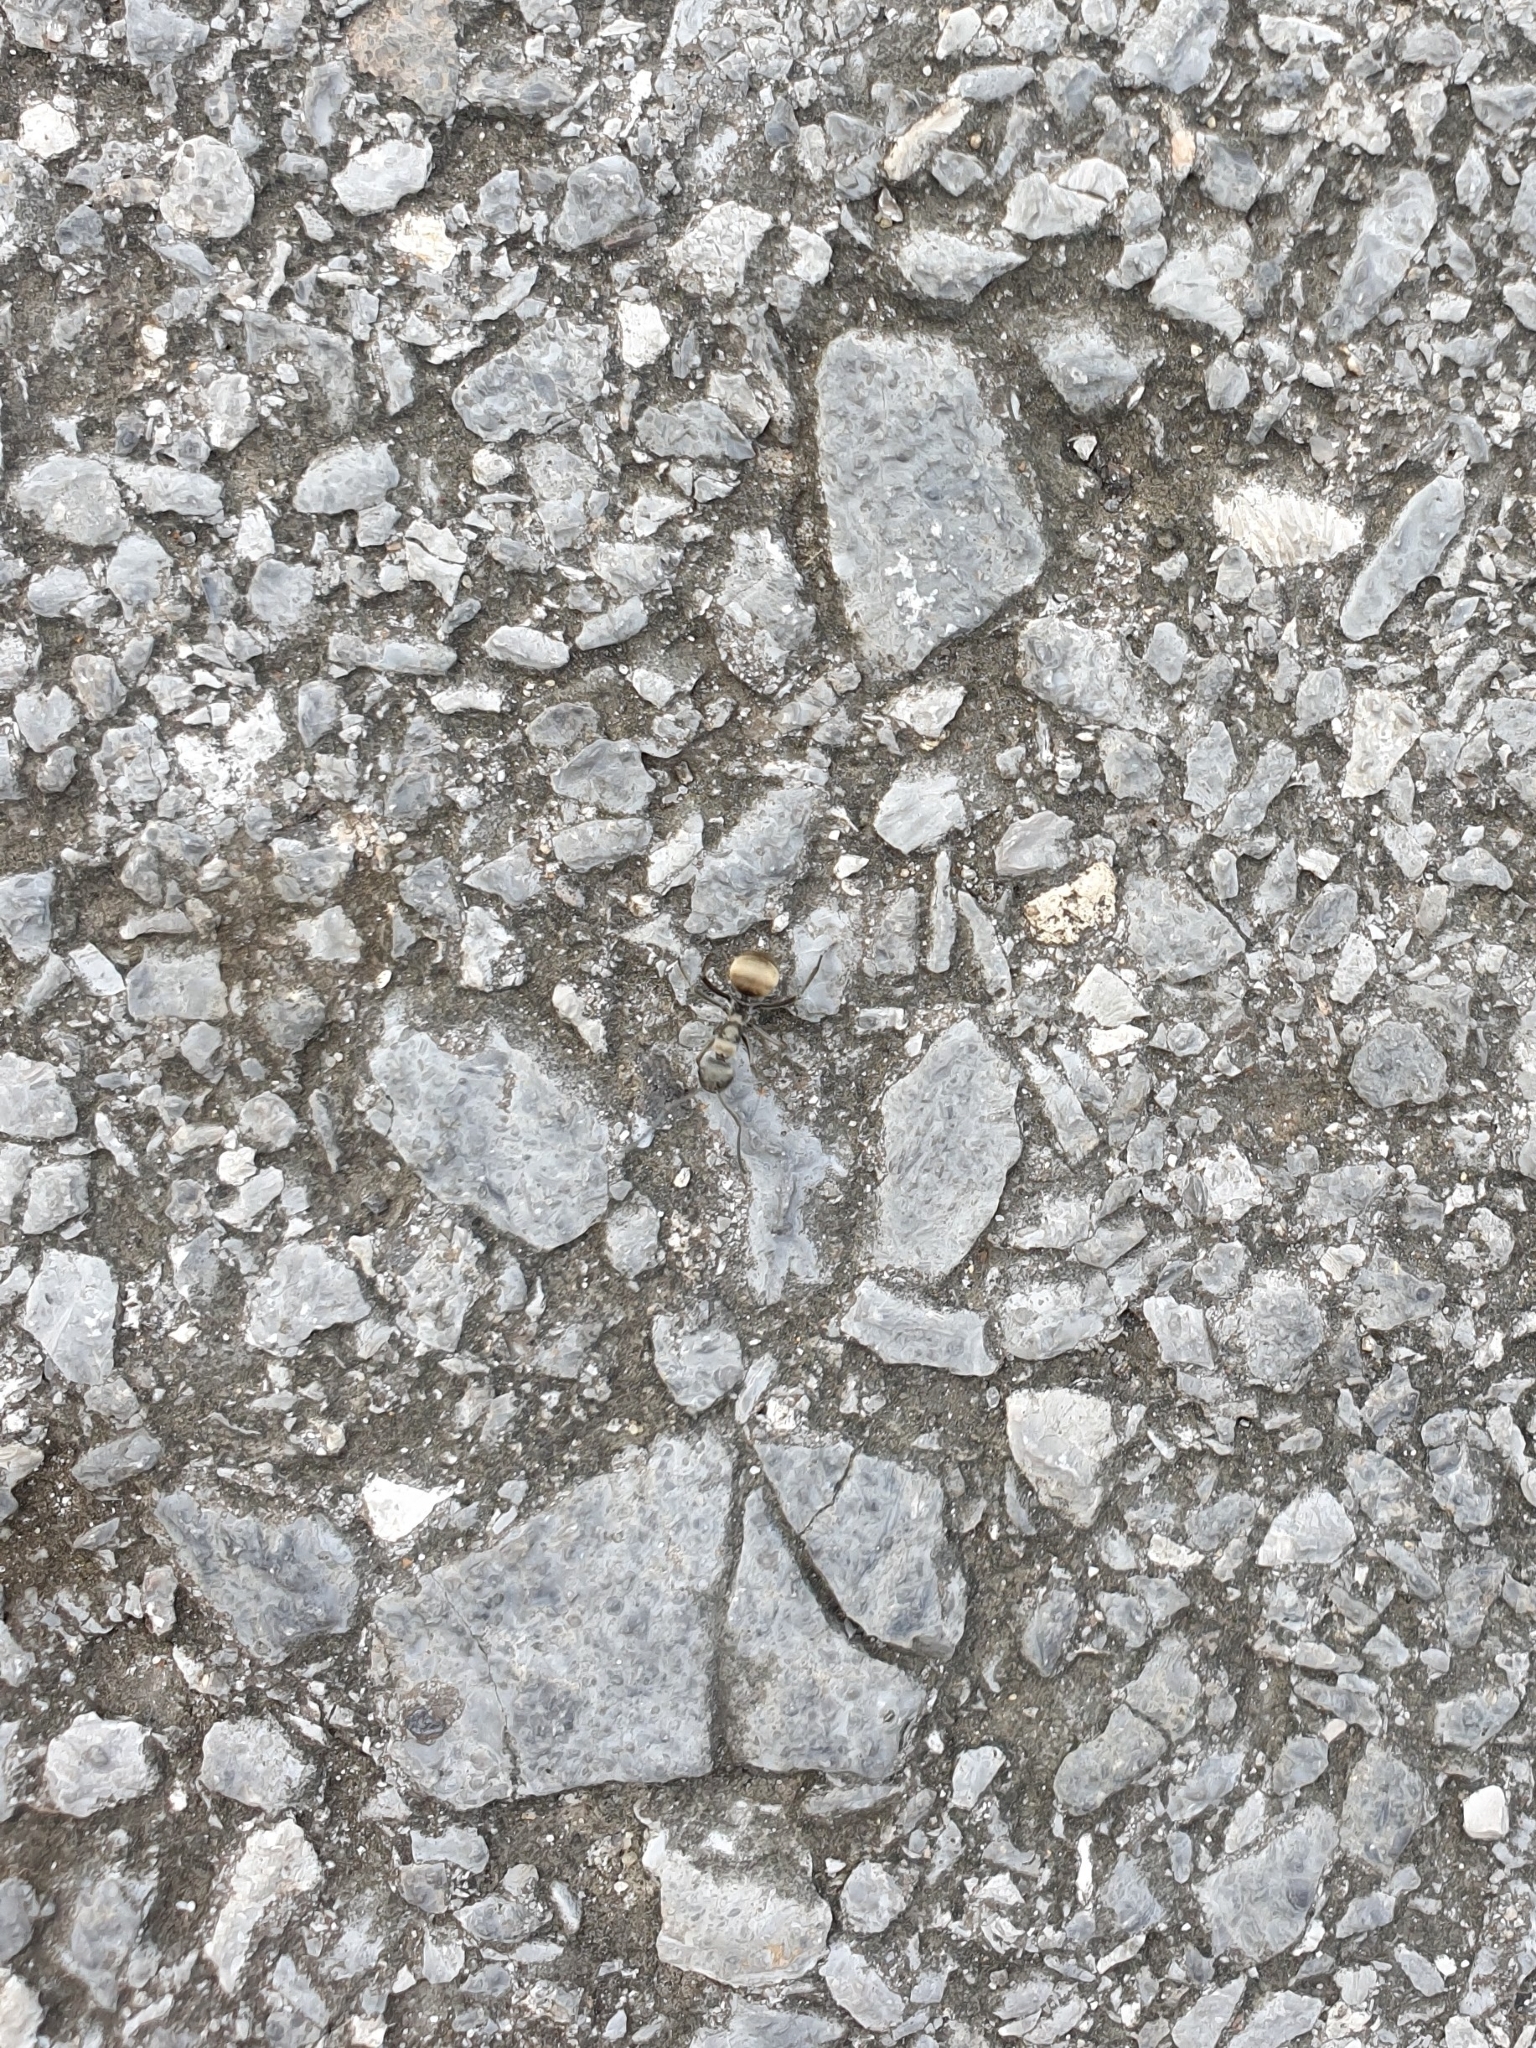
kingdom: Animalia
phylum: Arthropoda
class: Insecta
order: Hymenoptera
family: Formicidae
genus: Polyrhachis
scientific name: Polyrhachis dives
